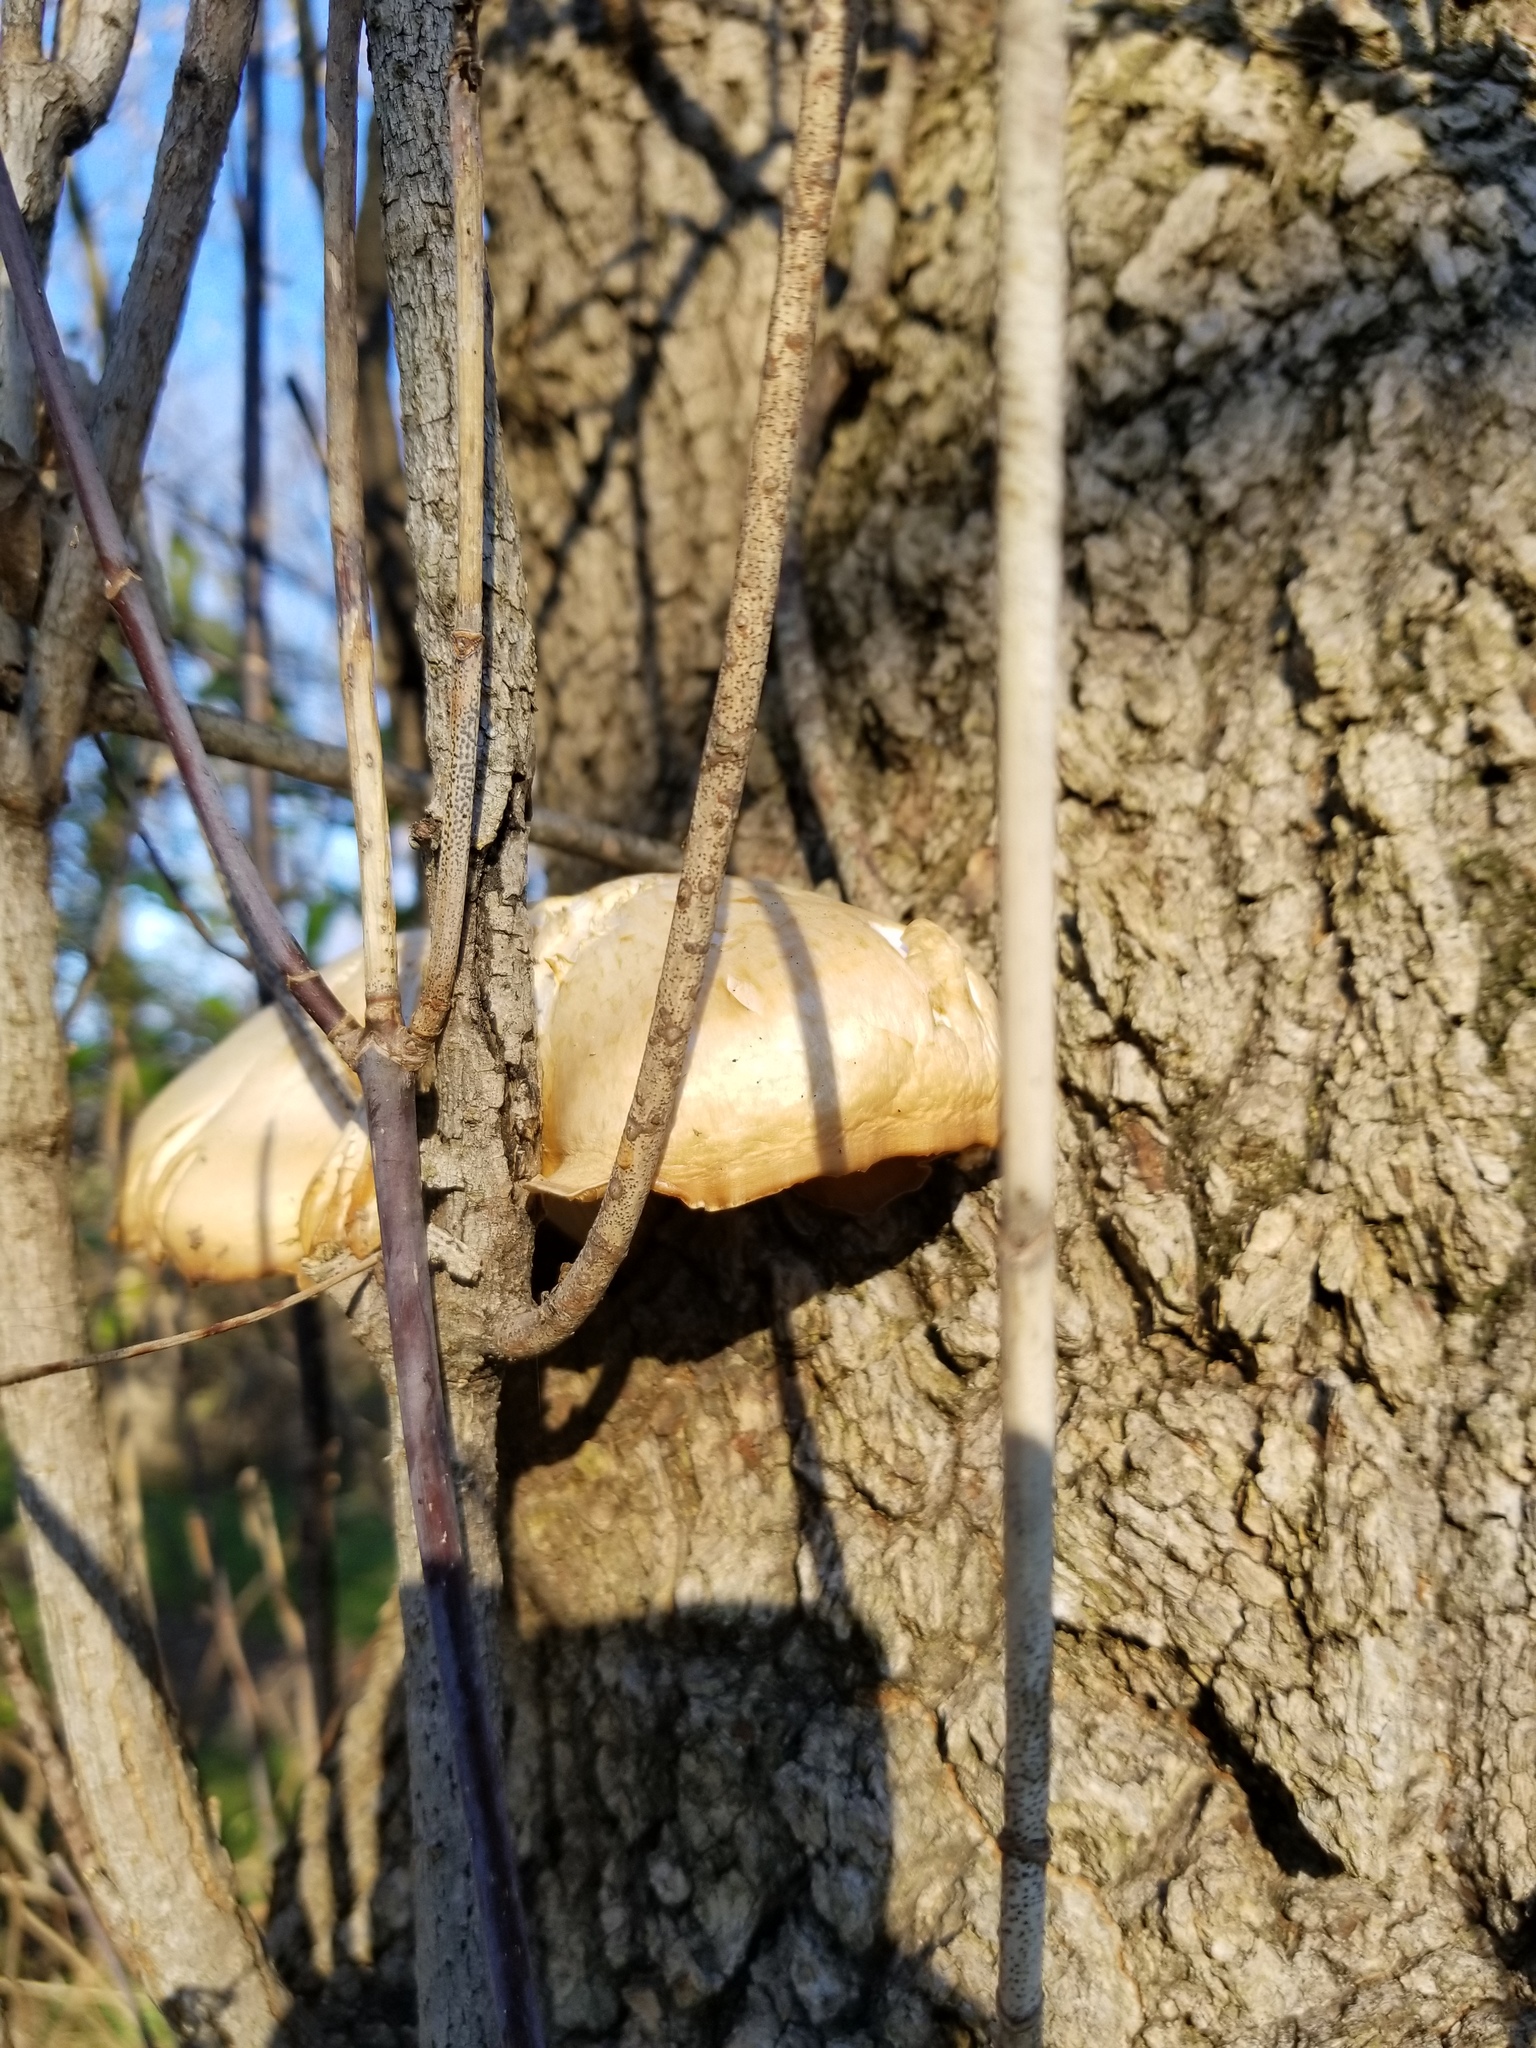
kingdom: Fungi
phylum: Basidiomycota
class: Agaricomycetes
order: Agaricales
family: Lyophyllaceae
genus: Hypsizygus
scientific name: Hypsizygus ulmarius
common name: Elm leech
